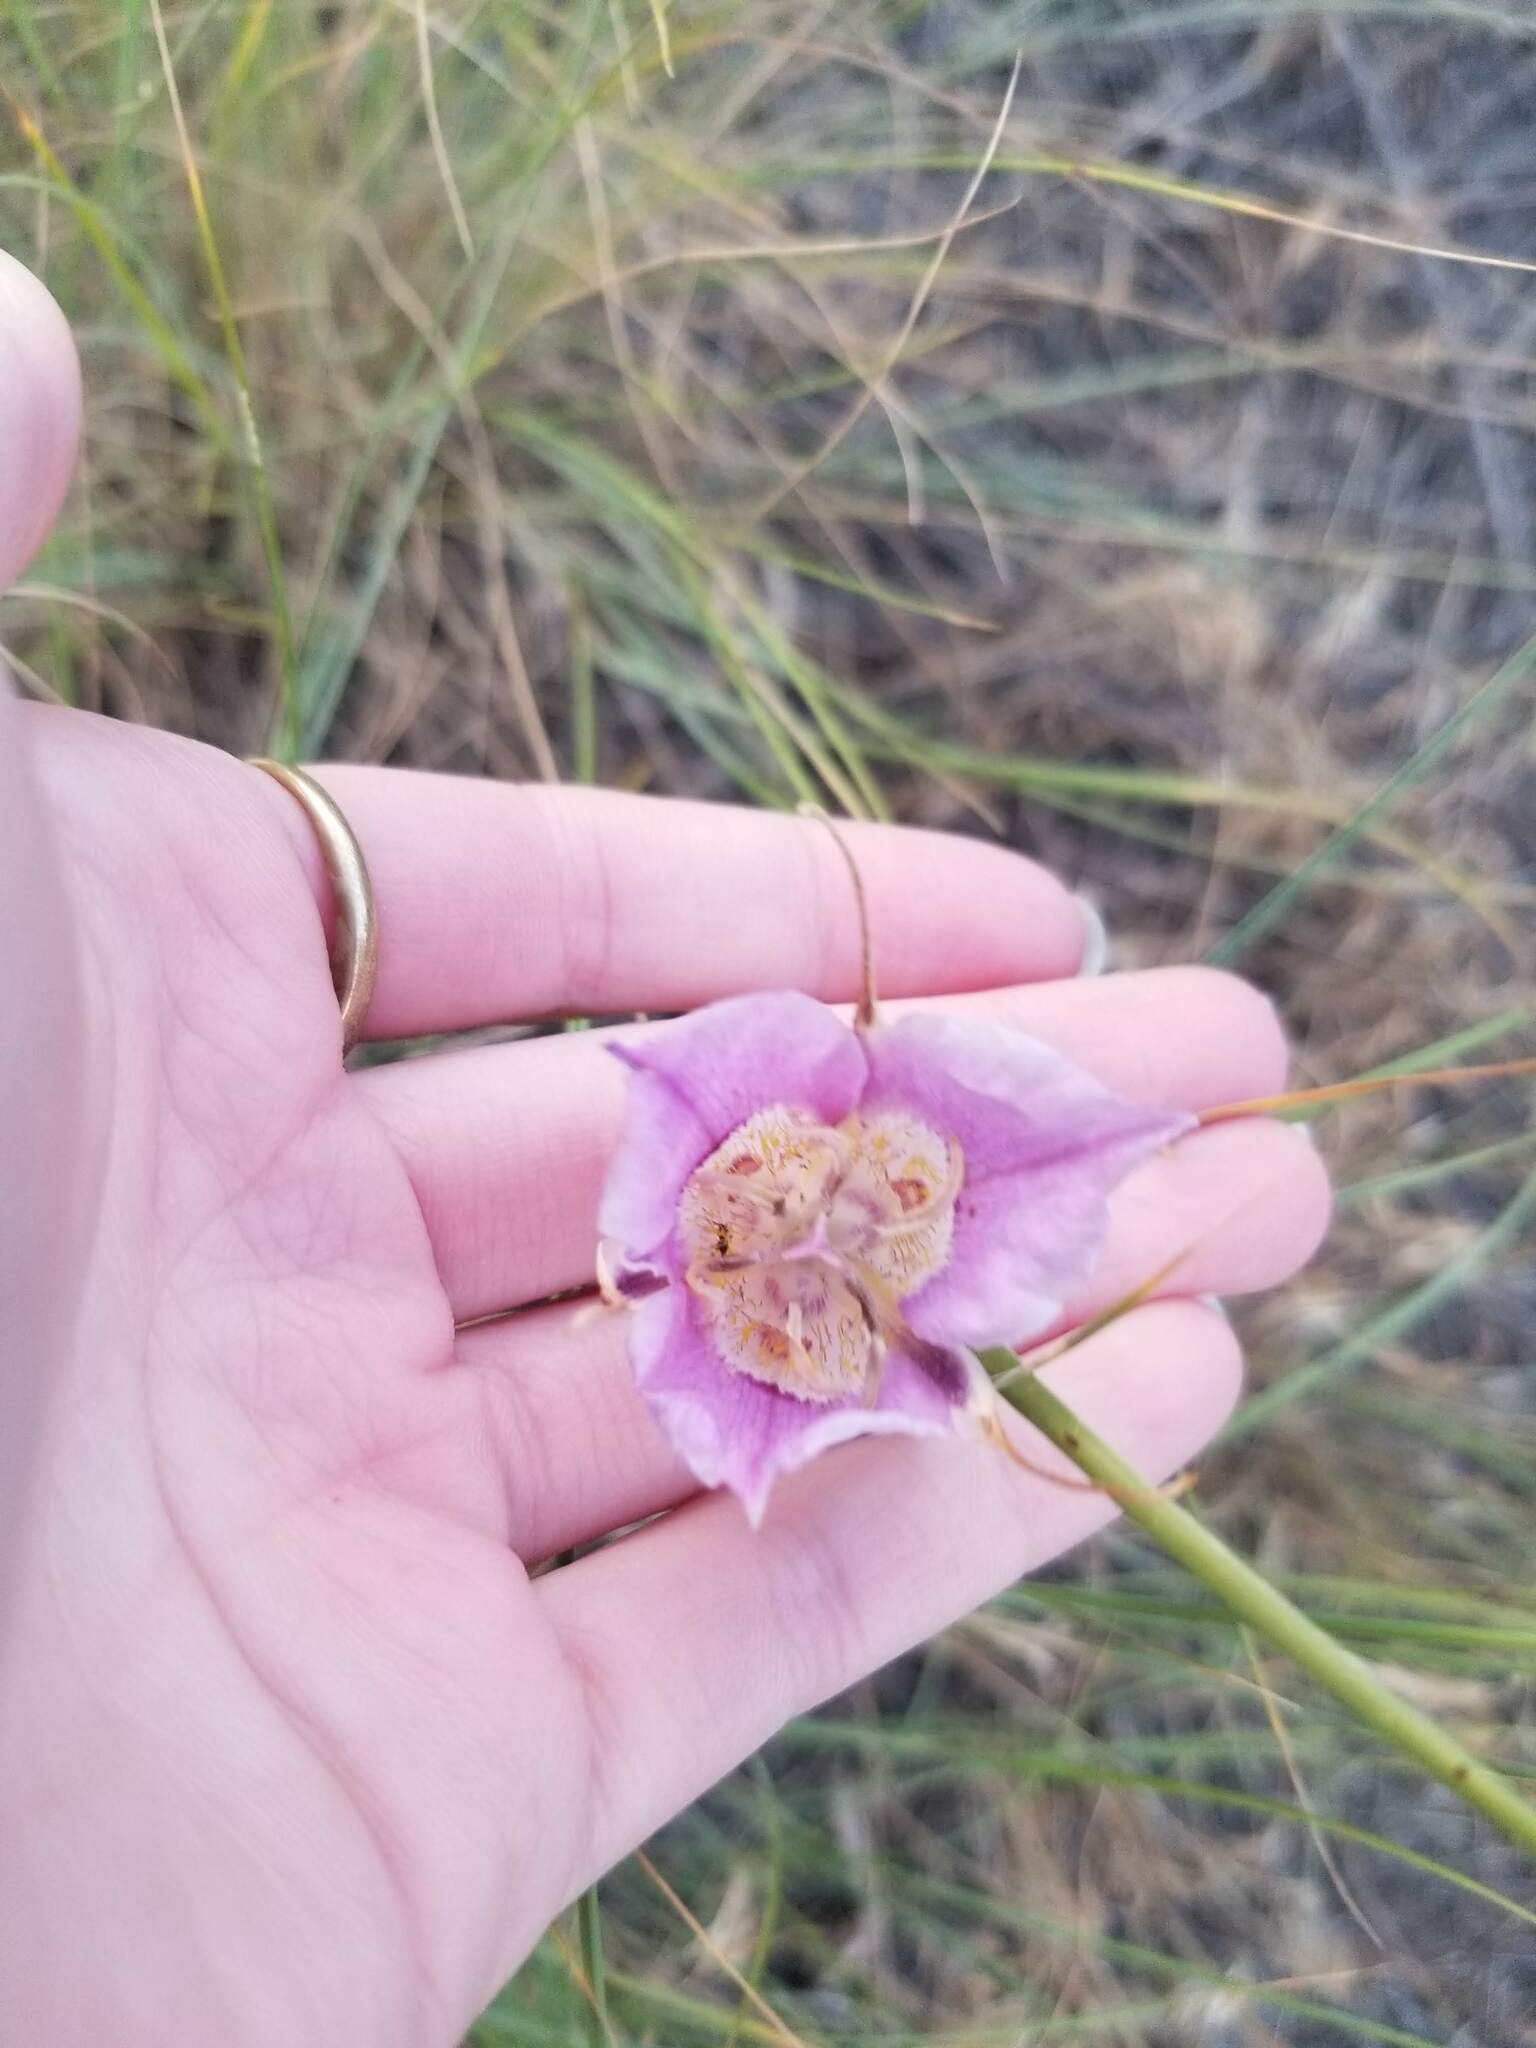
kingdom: Plantae
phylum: Tracheophyta
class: Liliopsida
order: Liliales
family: Liliaceae
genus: Calochortus
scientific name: Calochortus macrocarpus
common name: Green-band mariposa lily
